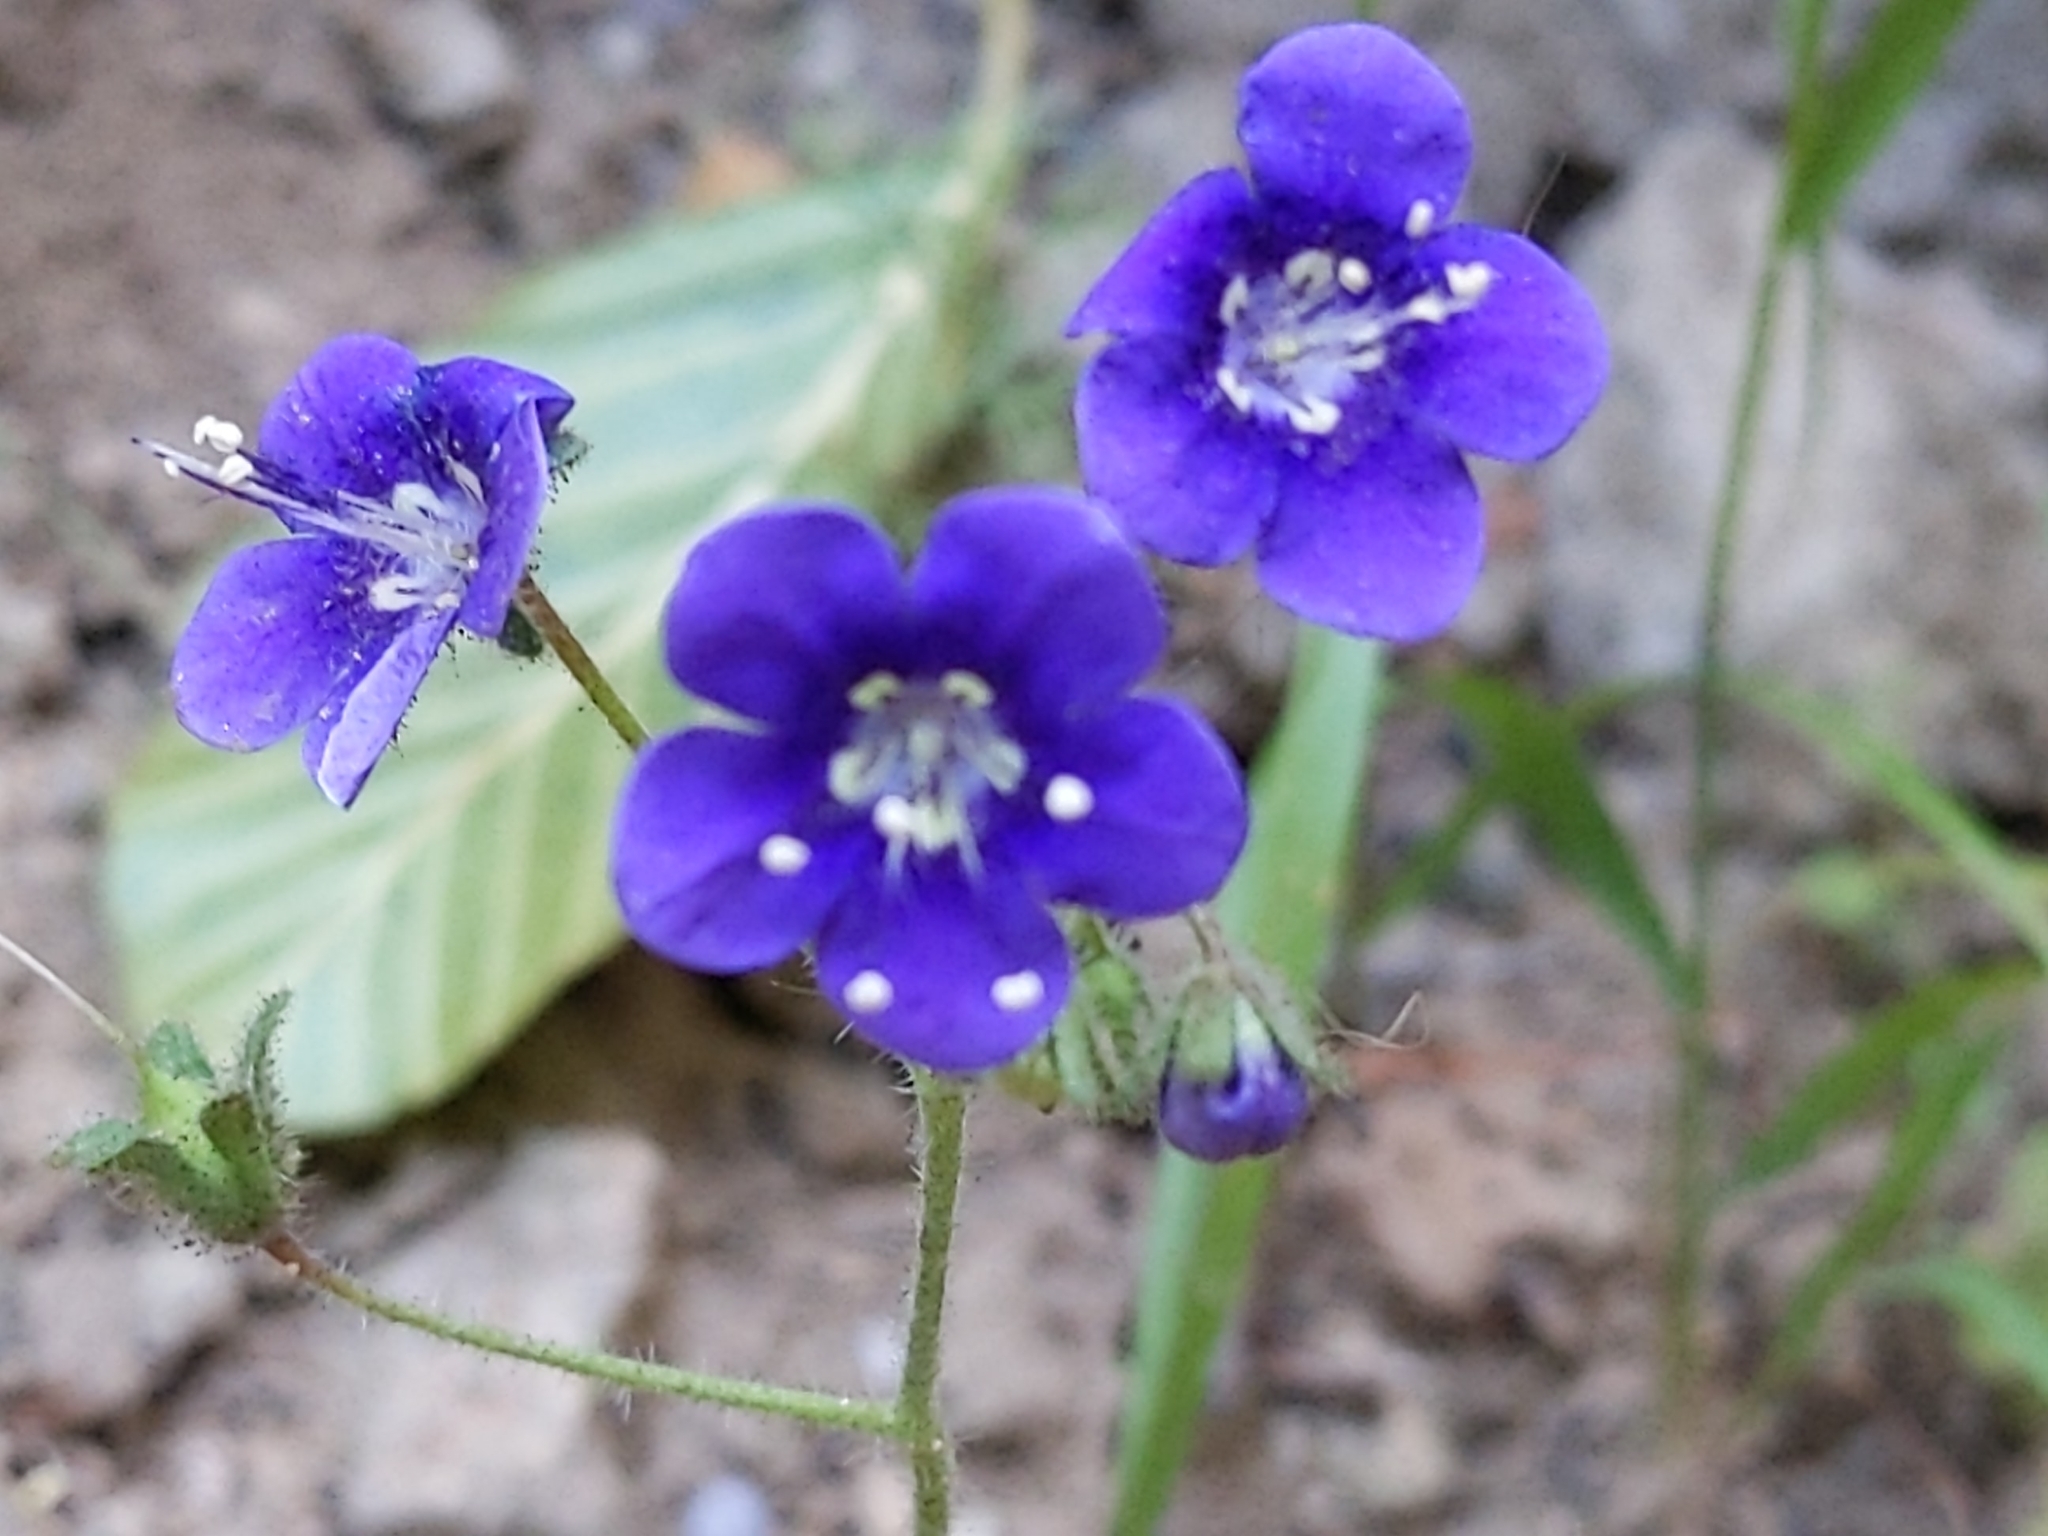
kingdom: Plantae
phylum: Tracheophyta
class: Magnoliopsida
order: Boraginales
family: Hydrophyllaceae
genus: Phacelia
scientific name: Phacelia parryi
